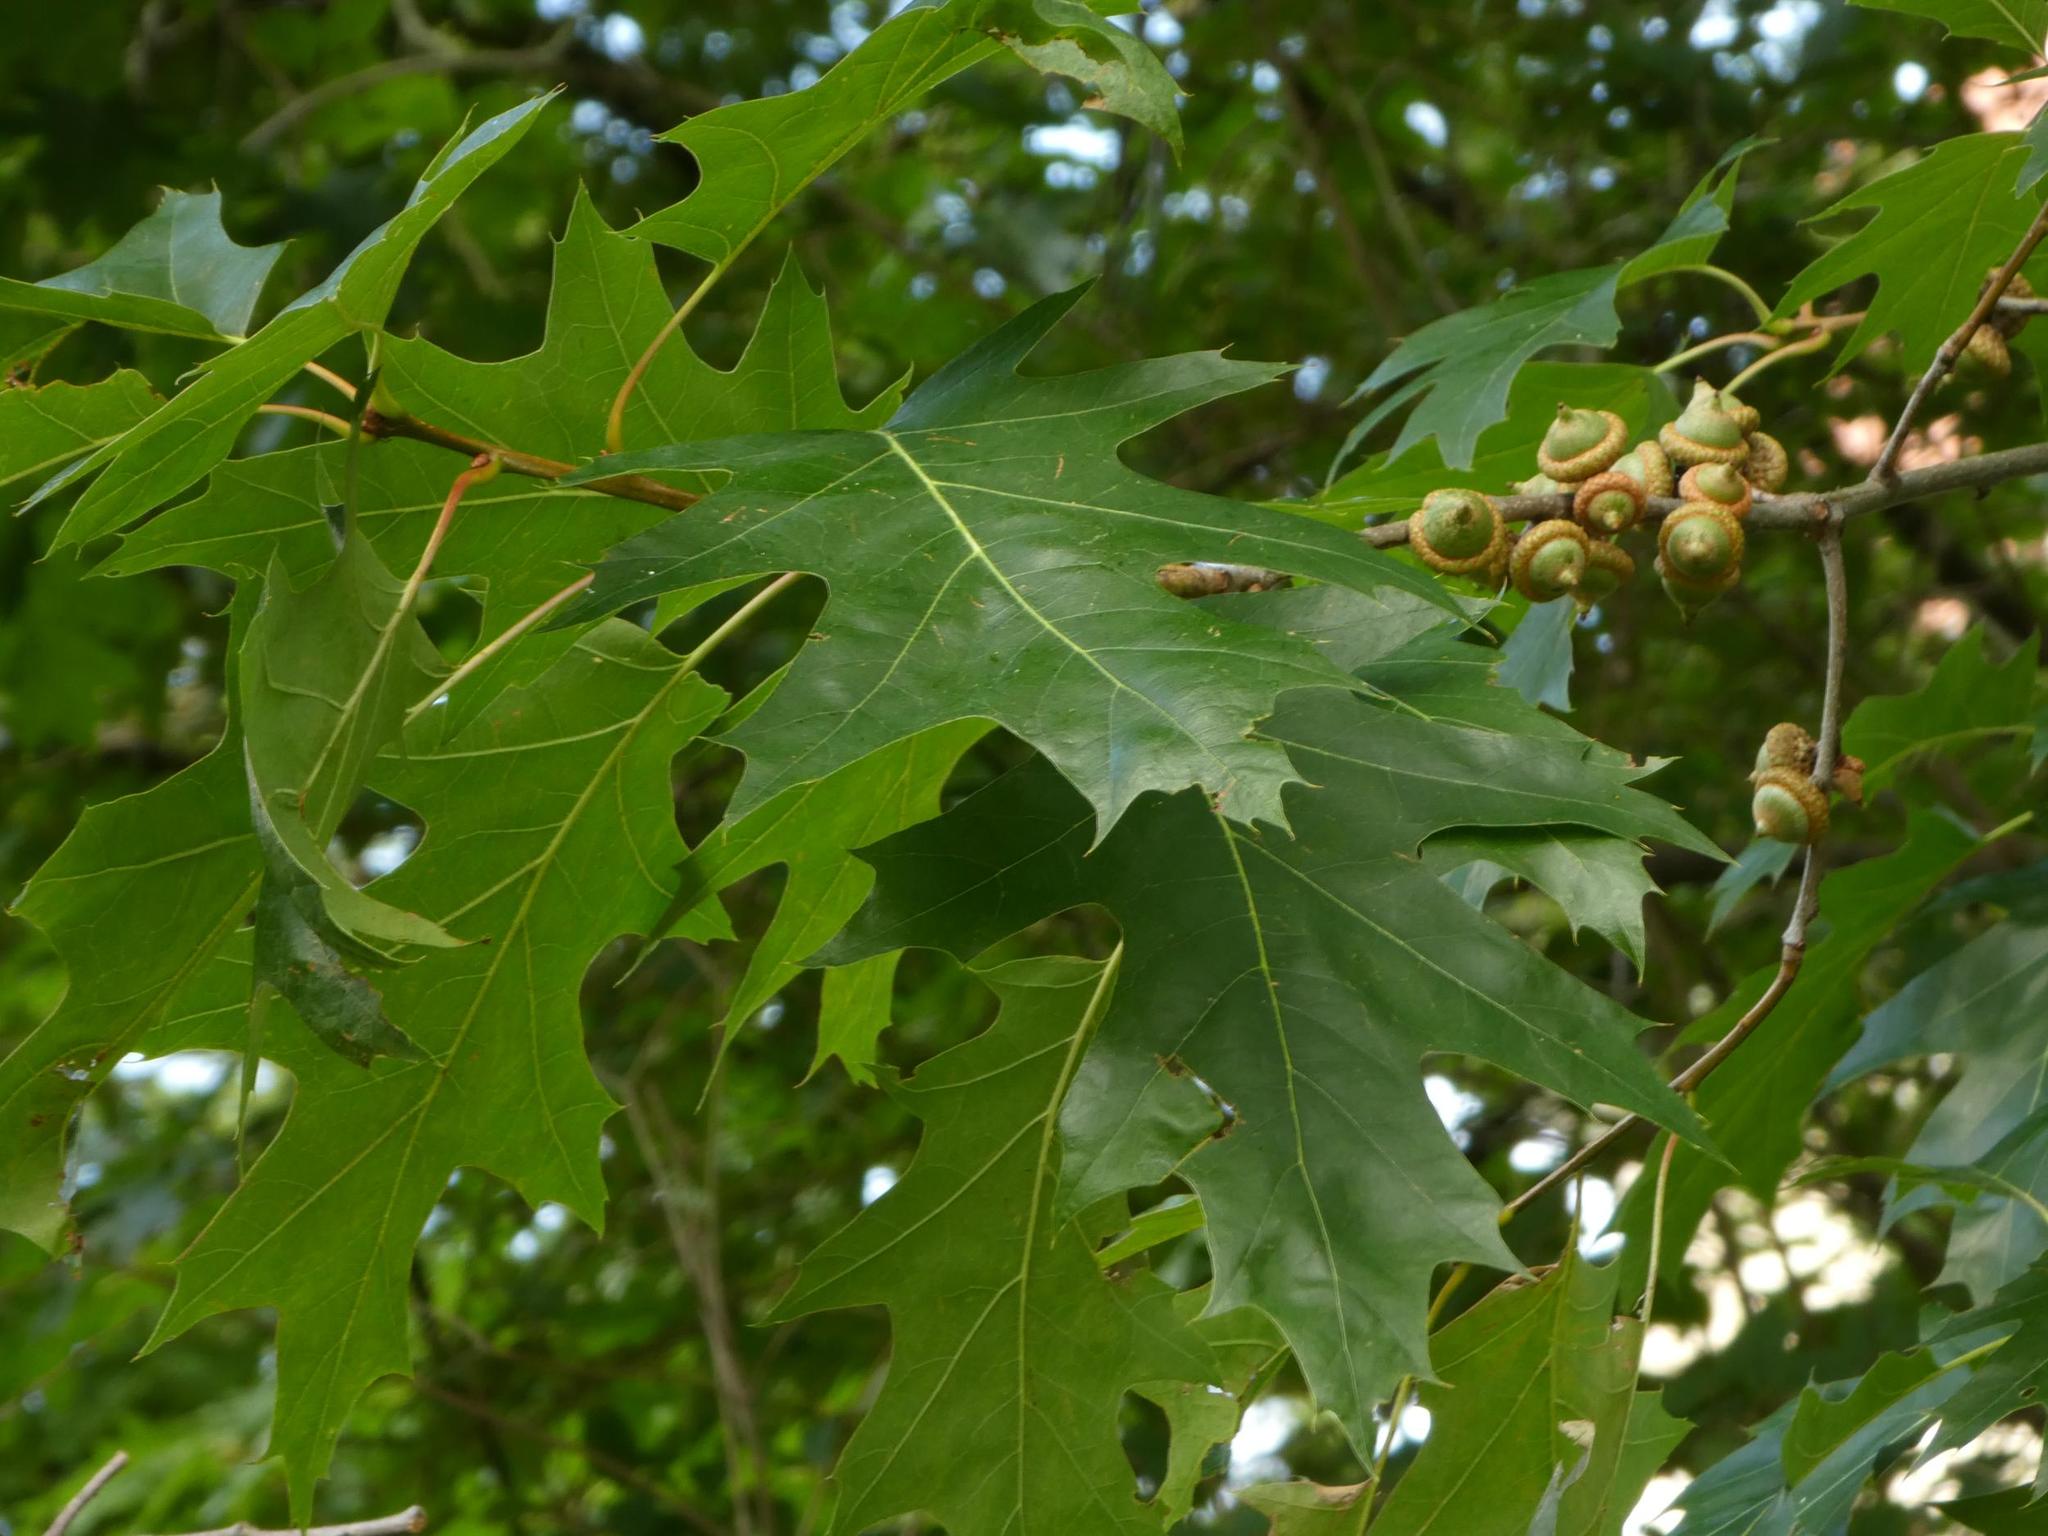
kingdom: Plantae
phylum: Tracheophyta
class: Magnoliopsida
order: Fagales
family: Fagaceae
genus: Quercus
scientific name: Quercus rubra
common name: Red oak
